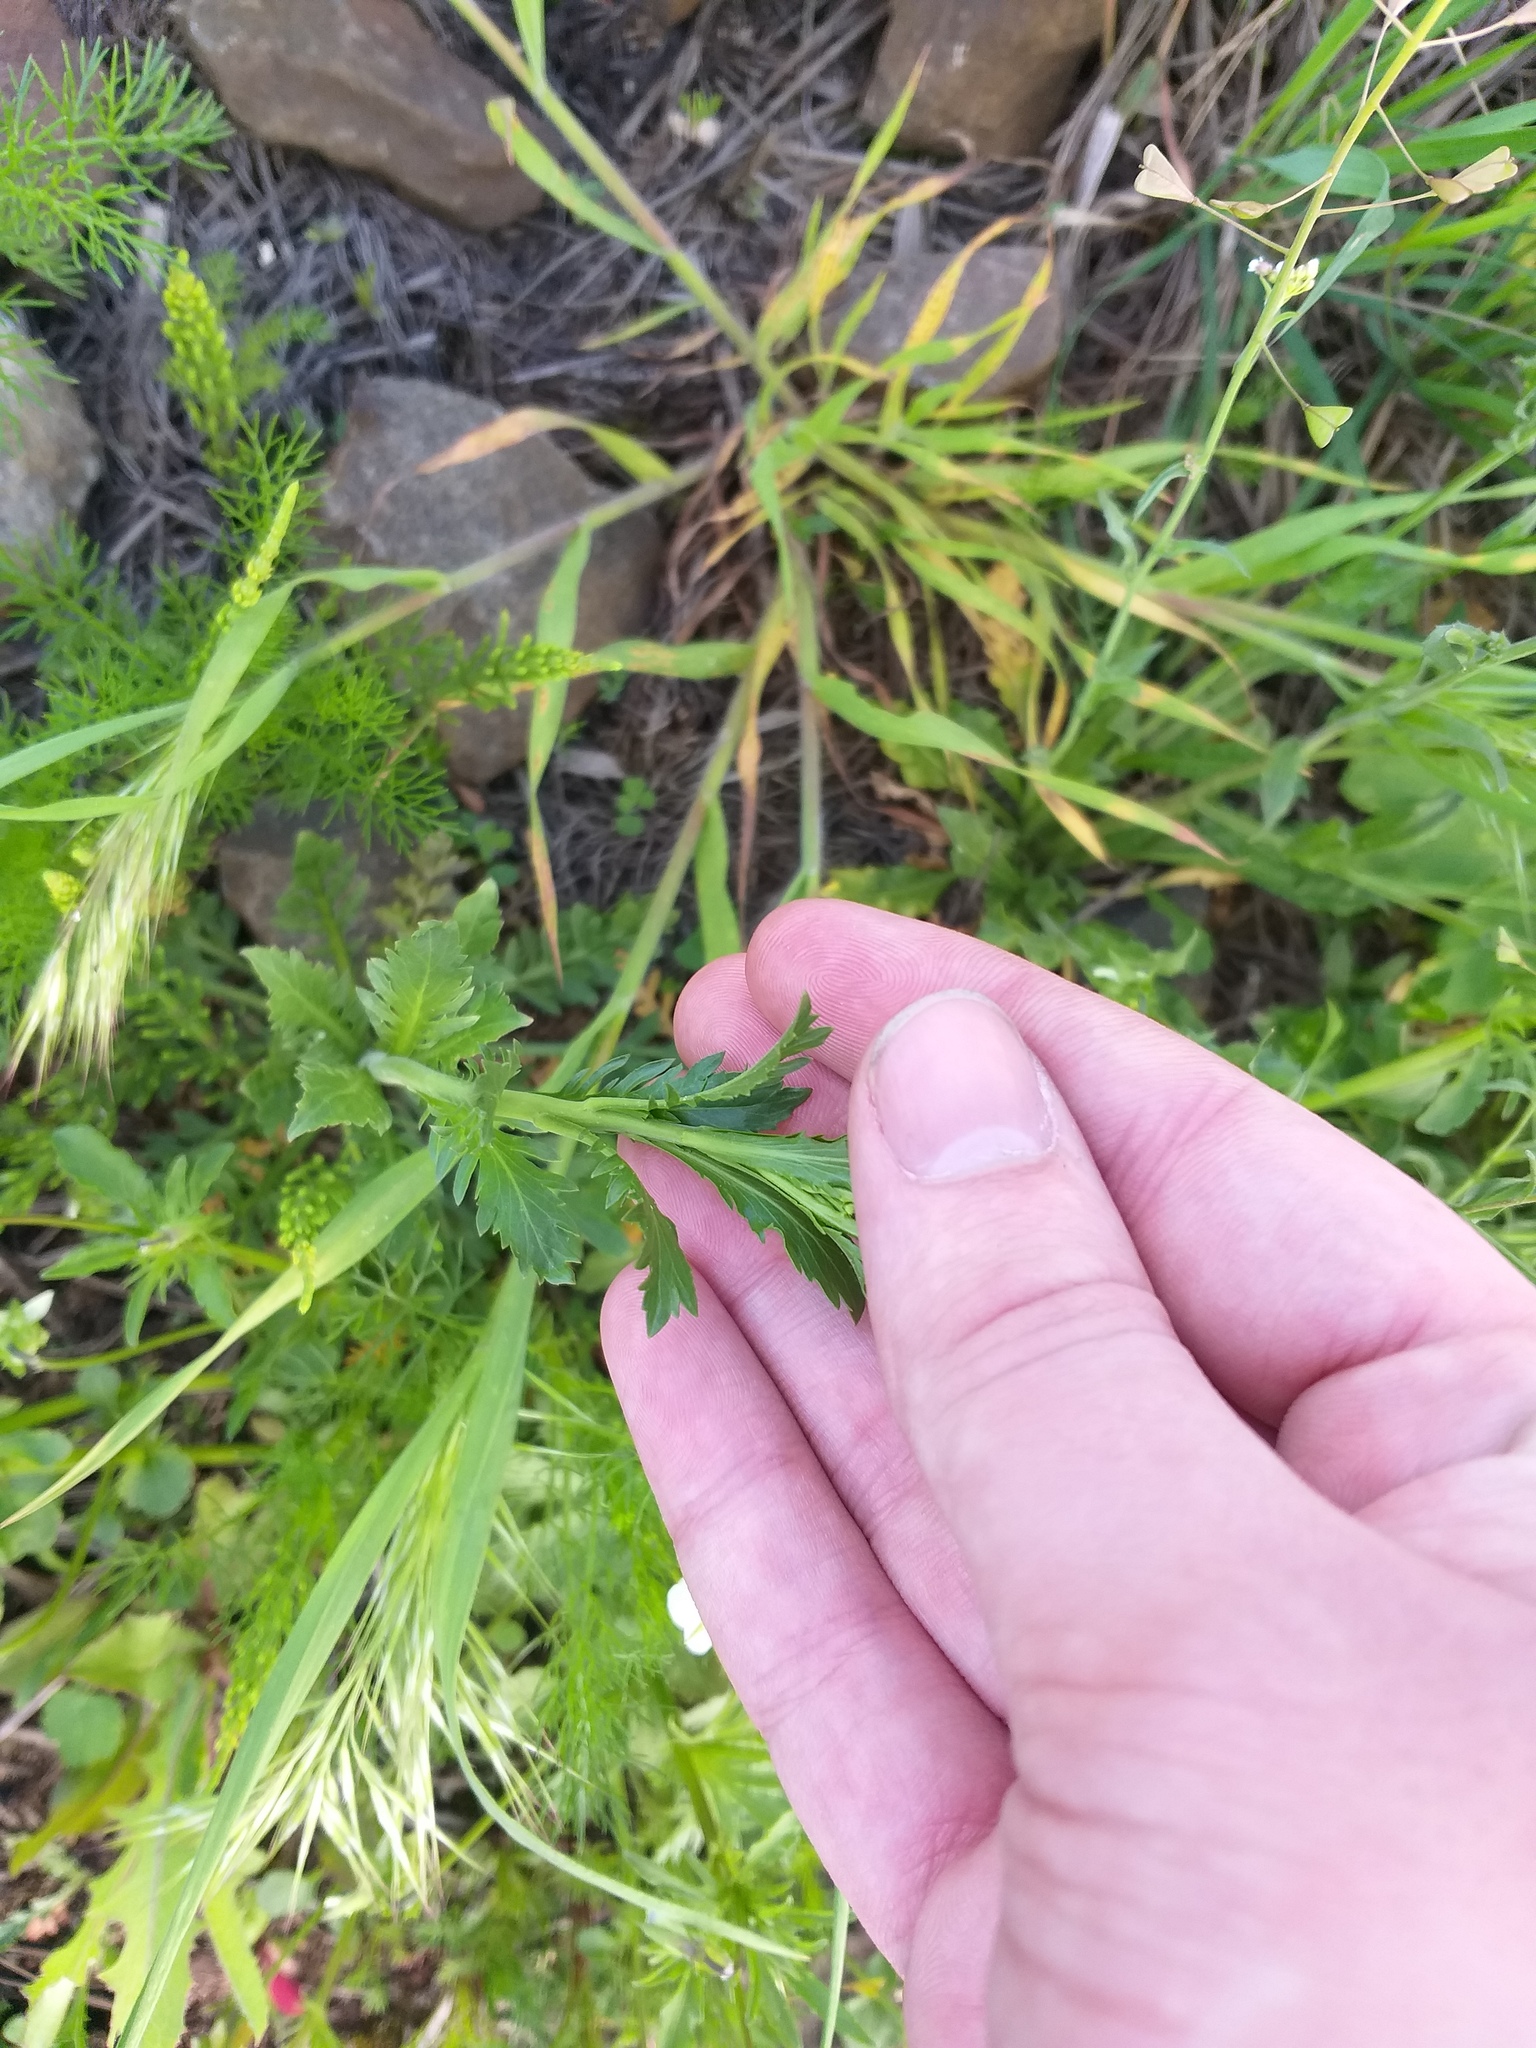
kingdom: Plantae
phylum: Tracheophyta
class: Magnoliopsida
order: Brassicales
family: Brassicaceae
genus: Lepidium
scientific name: Lepidium densiflorum
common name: Miner's pepperwort
